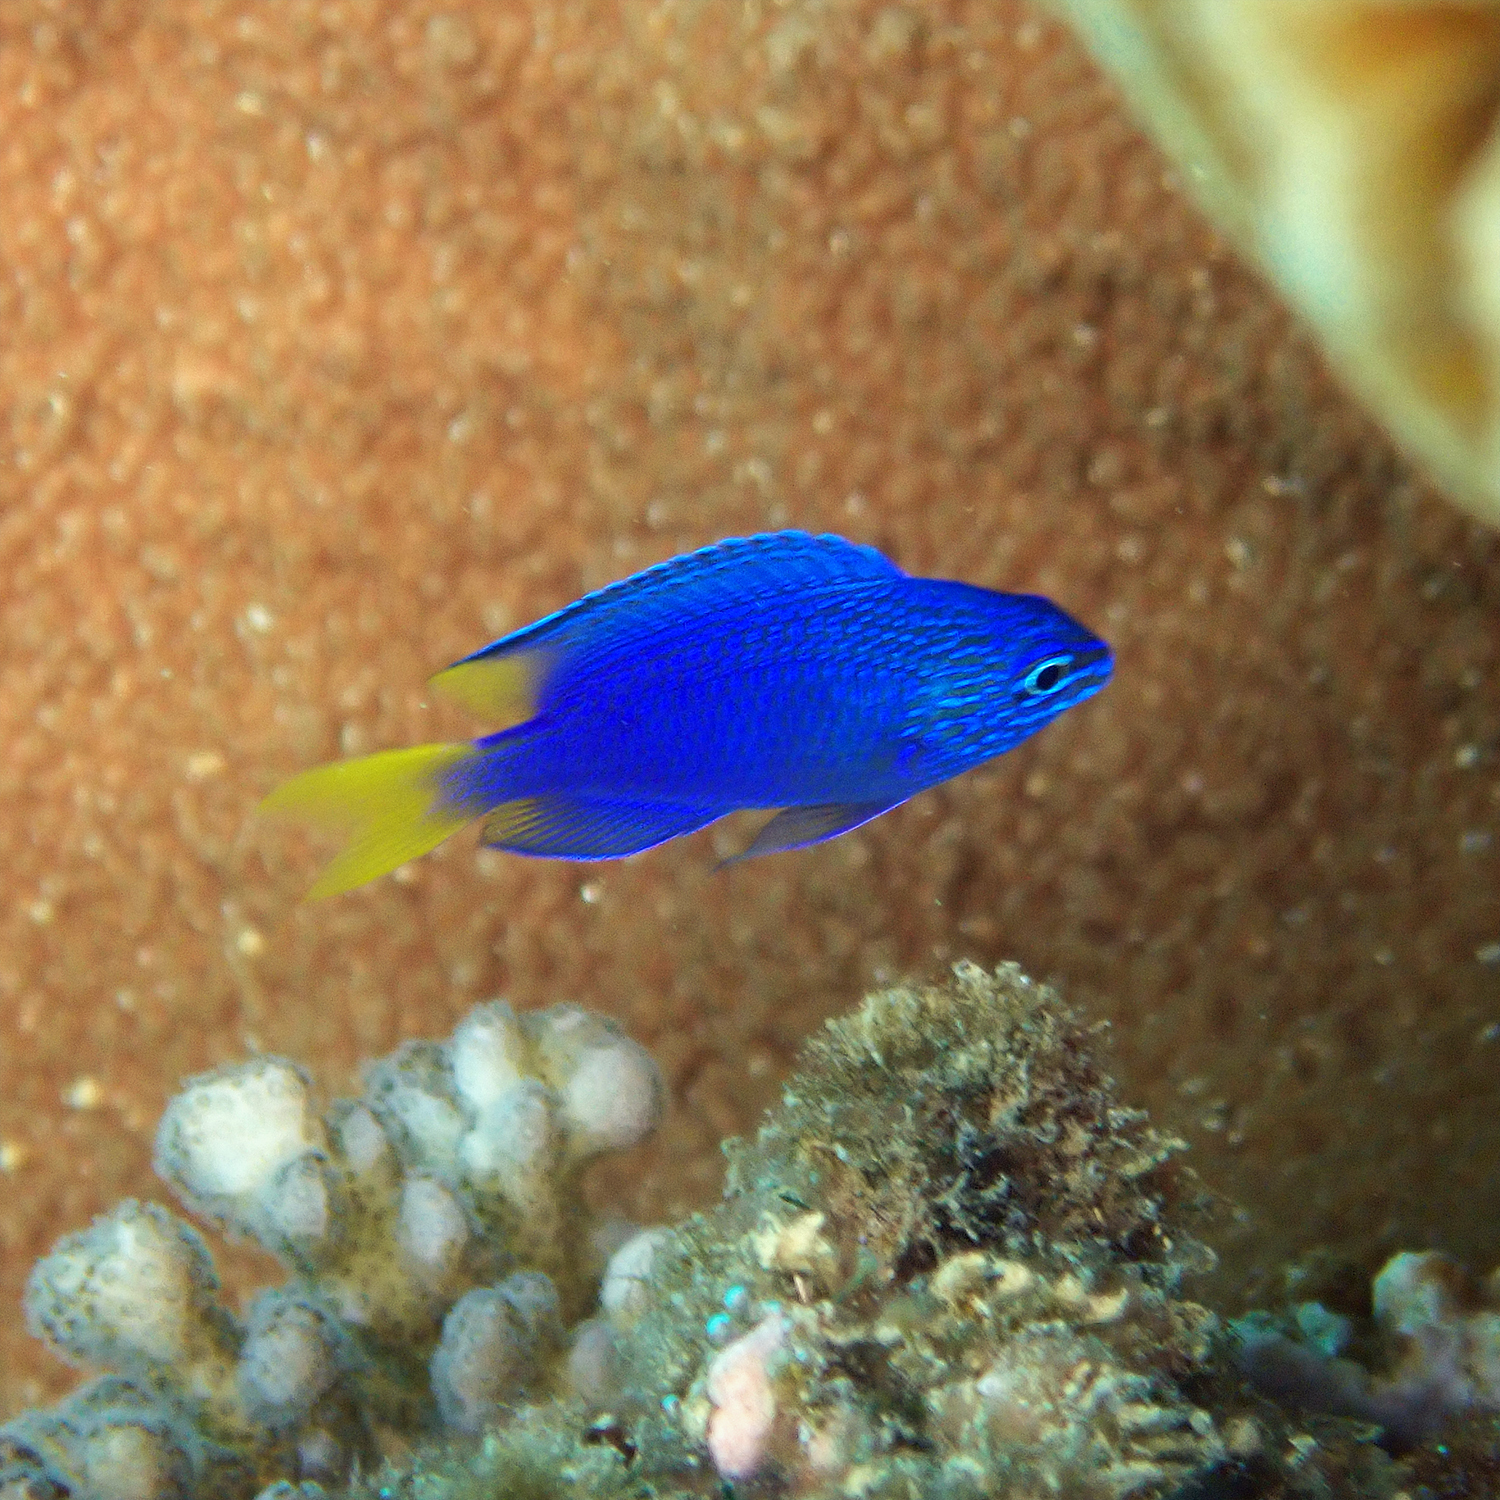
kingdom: Animalia
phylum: Chordata
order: Perciformes
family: Pomacentridae
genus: Pomacentrus
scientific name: Pomacentrus pavo
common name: Sapphire damsel
